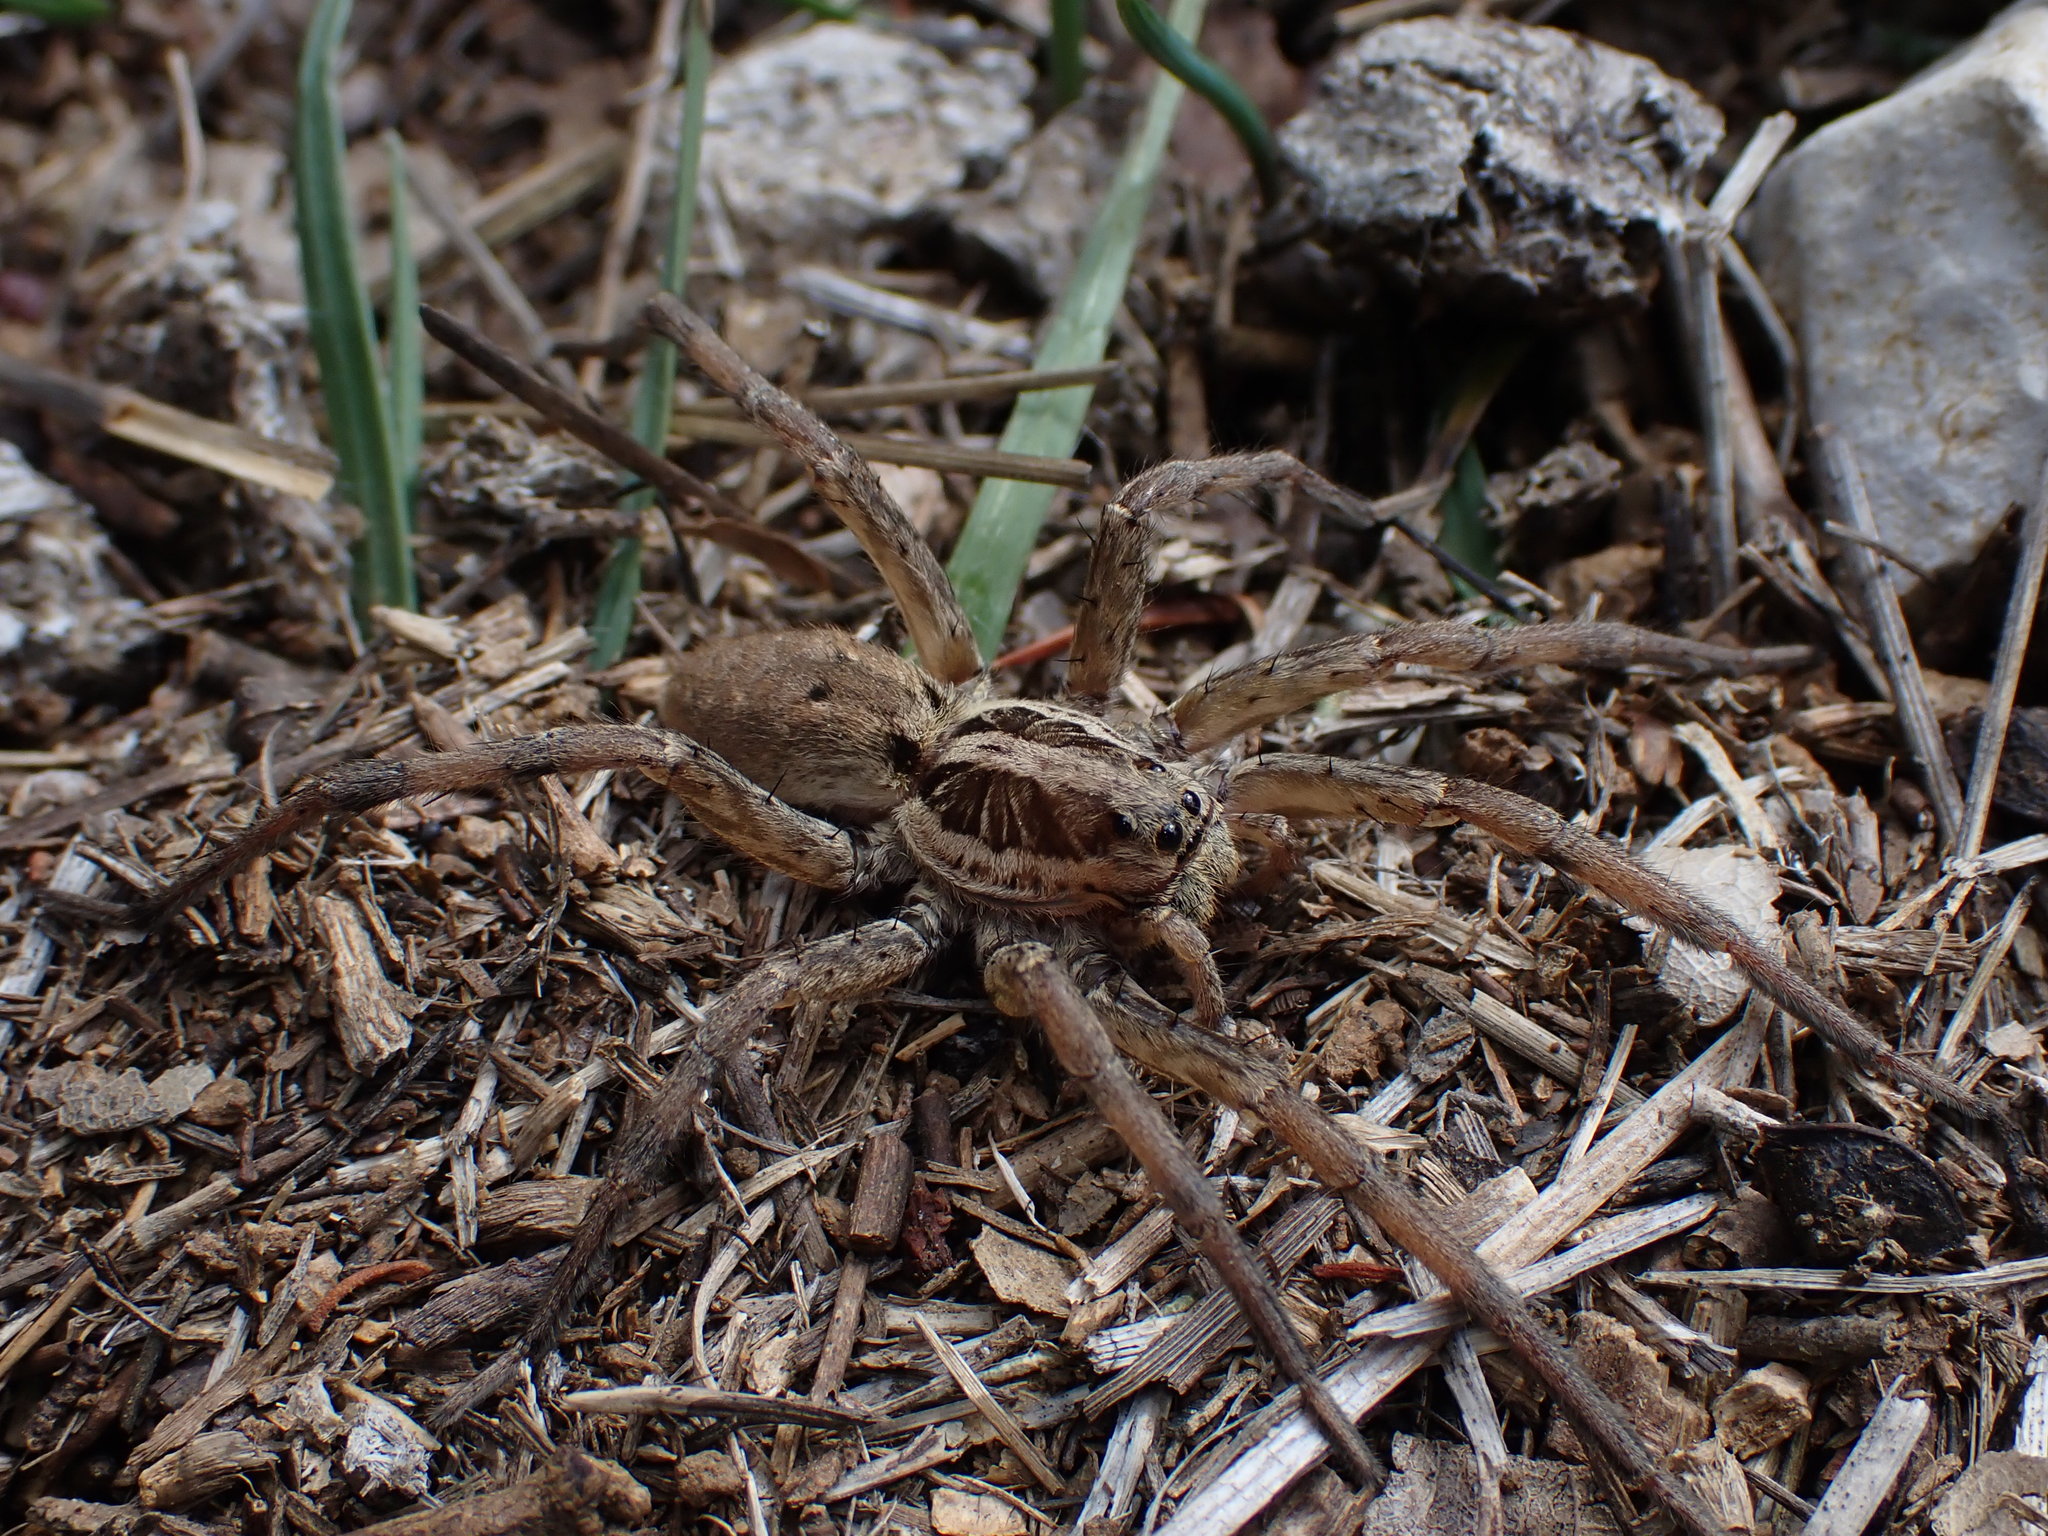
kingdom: Animalia
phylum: Arthropoda
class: Arachnida
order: Araneae
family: Lycosidae
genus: Hogna
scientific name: Hogna radiata
